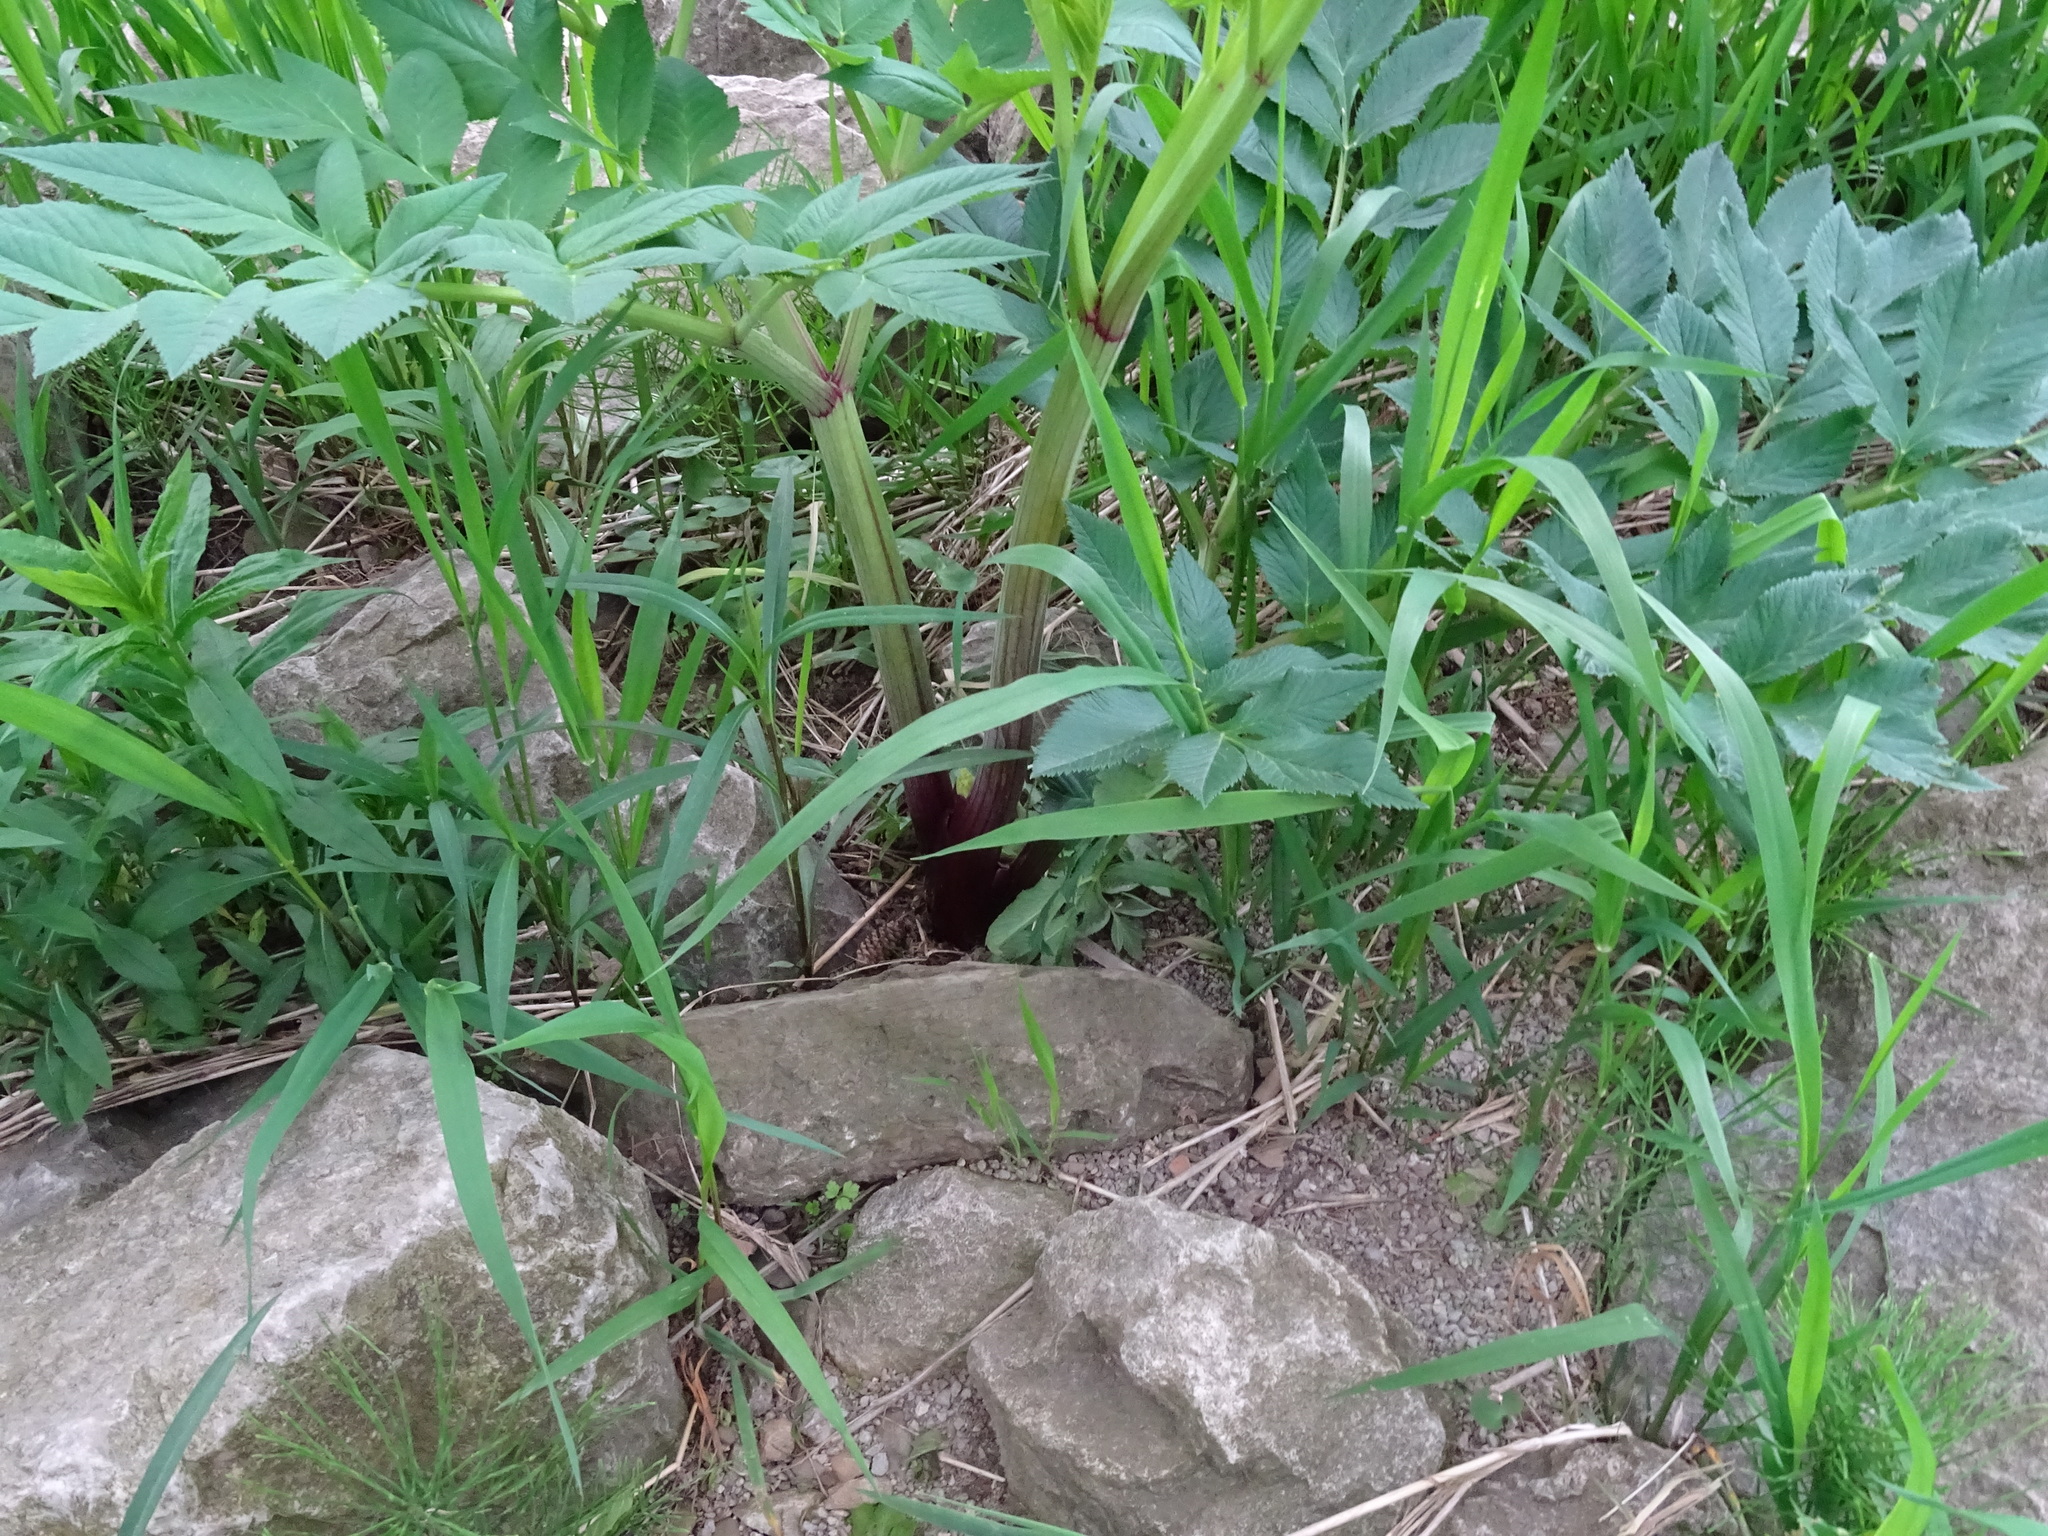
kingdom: Plantae
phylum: Tracheophyta
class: Magnoliopsida
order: Apiales
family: Apiaceae
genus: Angelica
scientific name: Angelica sylvestris
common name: Wild angelica
